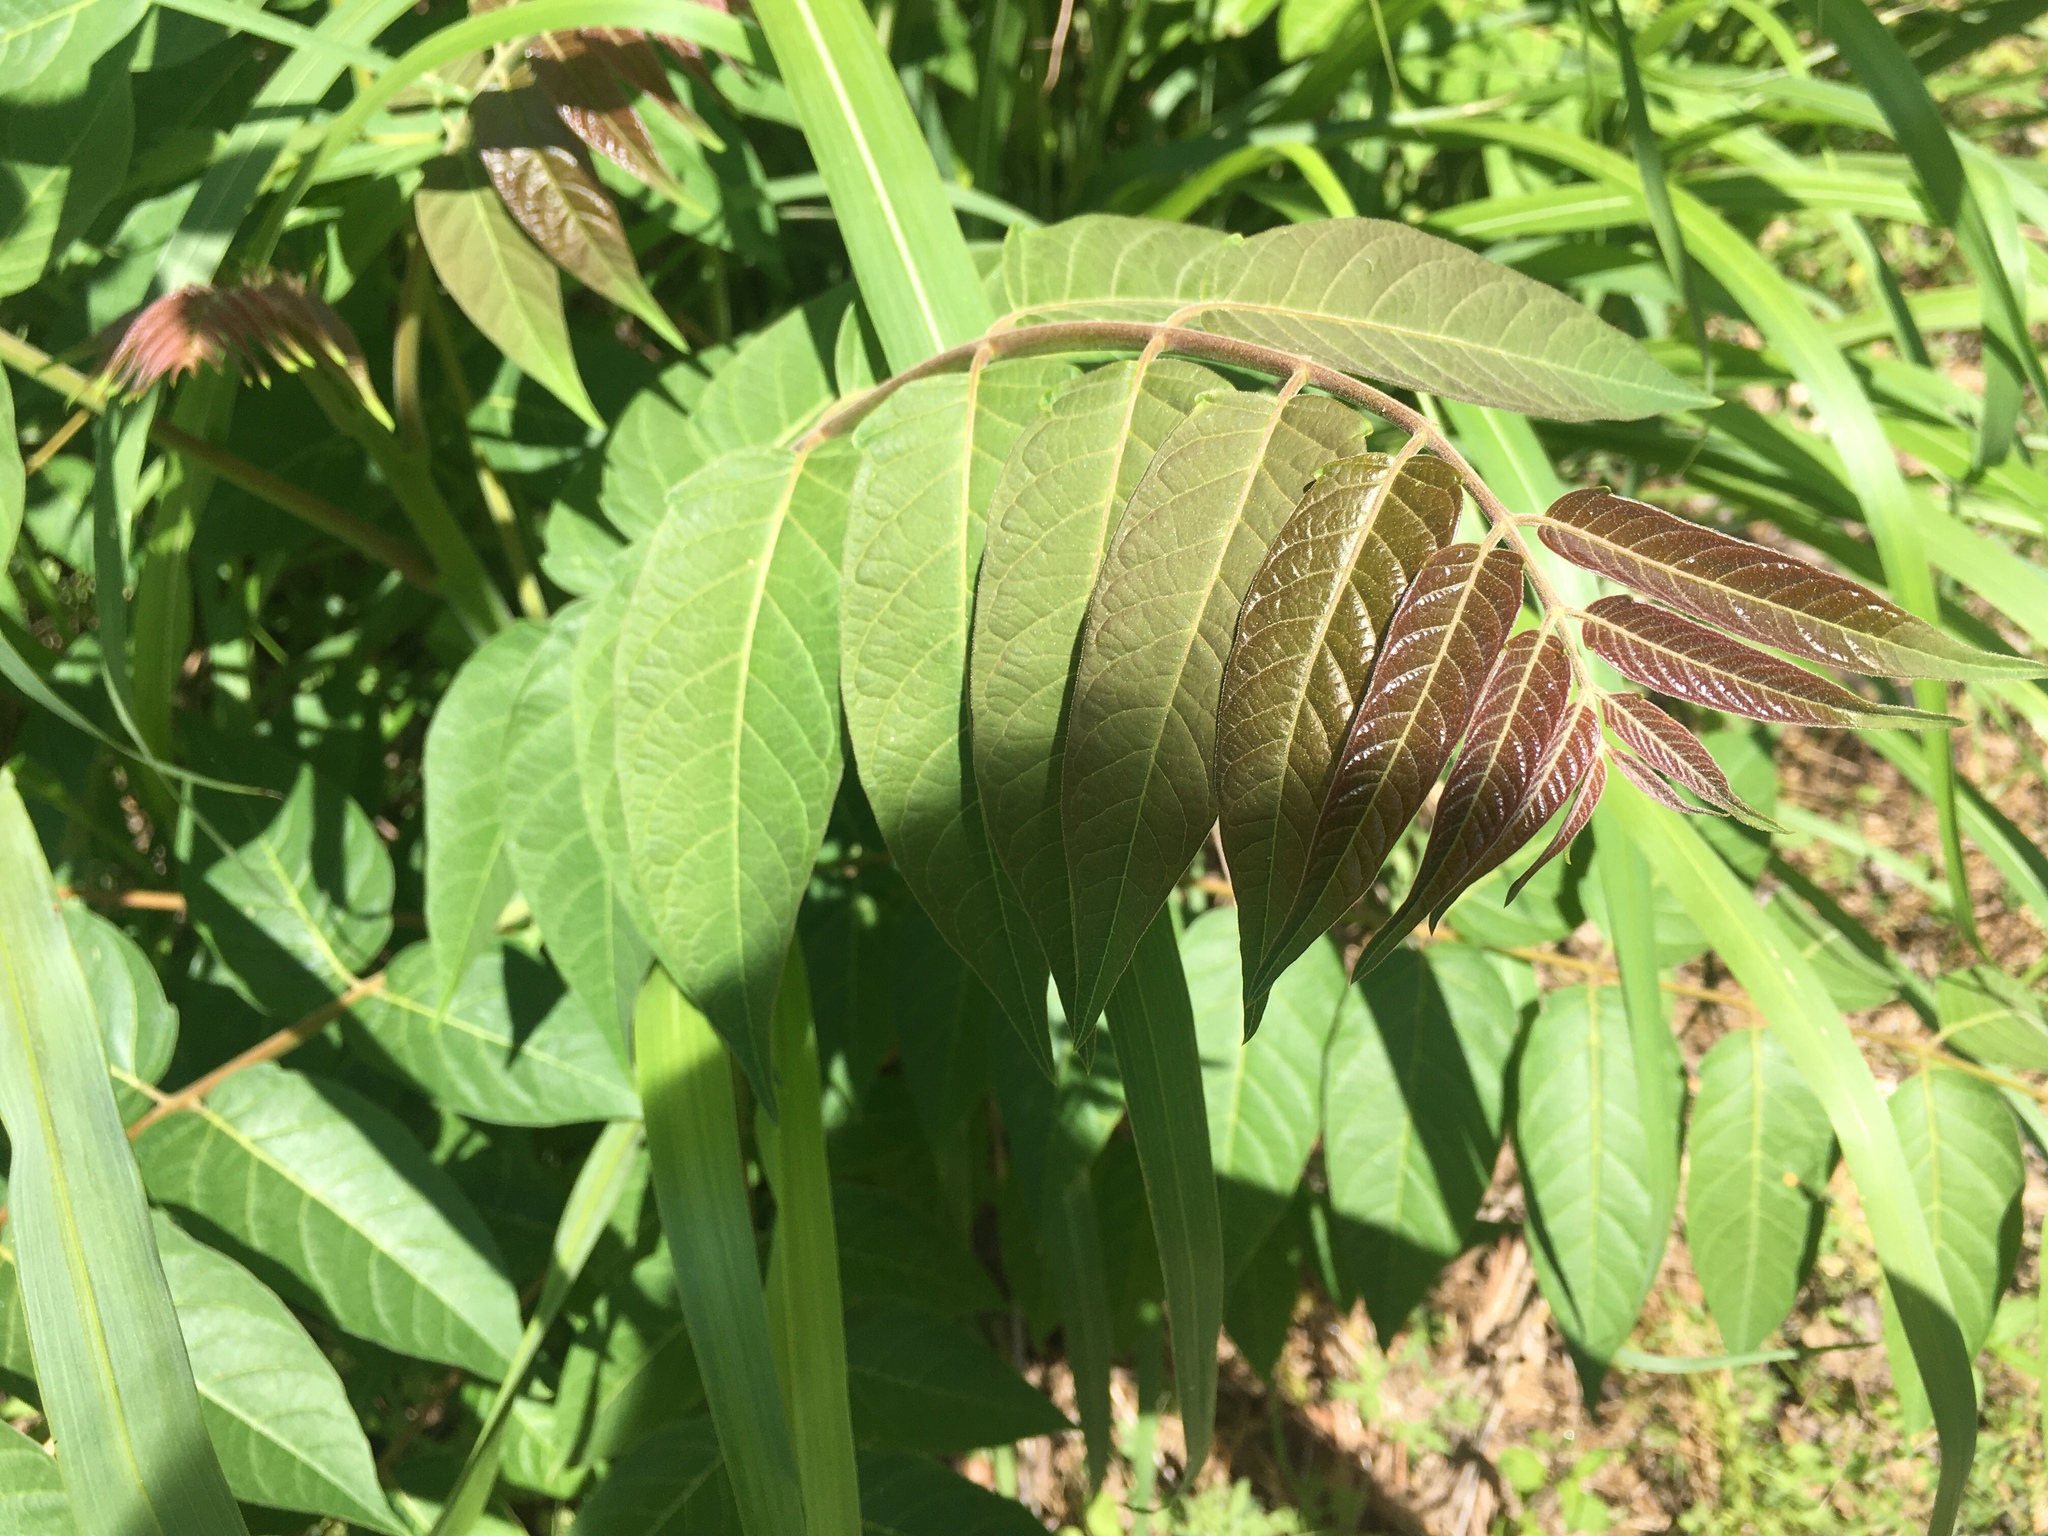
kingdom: Plantae
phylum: Tracheophyta
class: Magnoliopsida
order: Sapindales
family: Simaroubaceae
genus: Ailanthus
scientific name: Ailanthus altissima
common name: Tree-of-heaven
